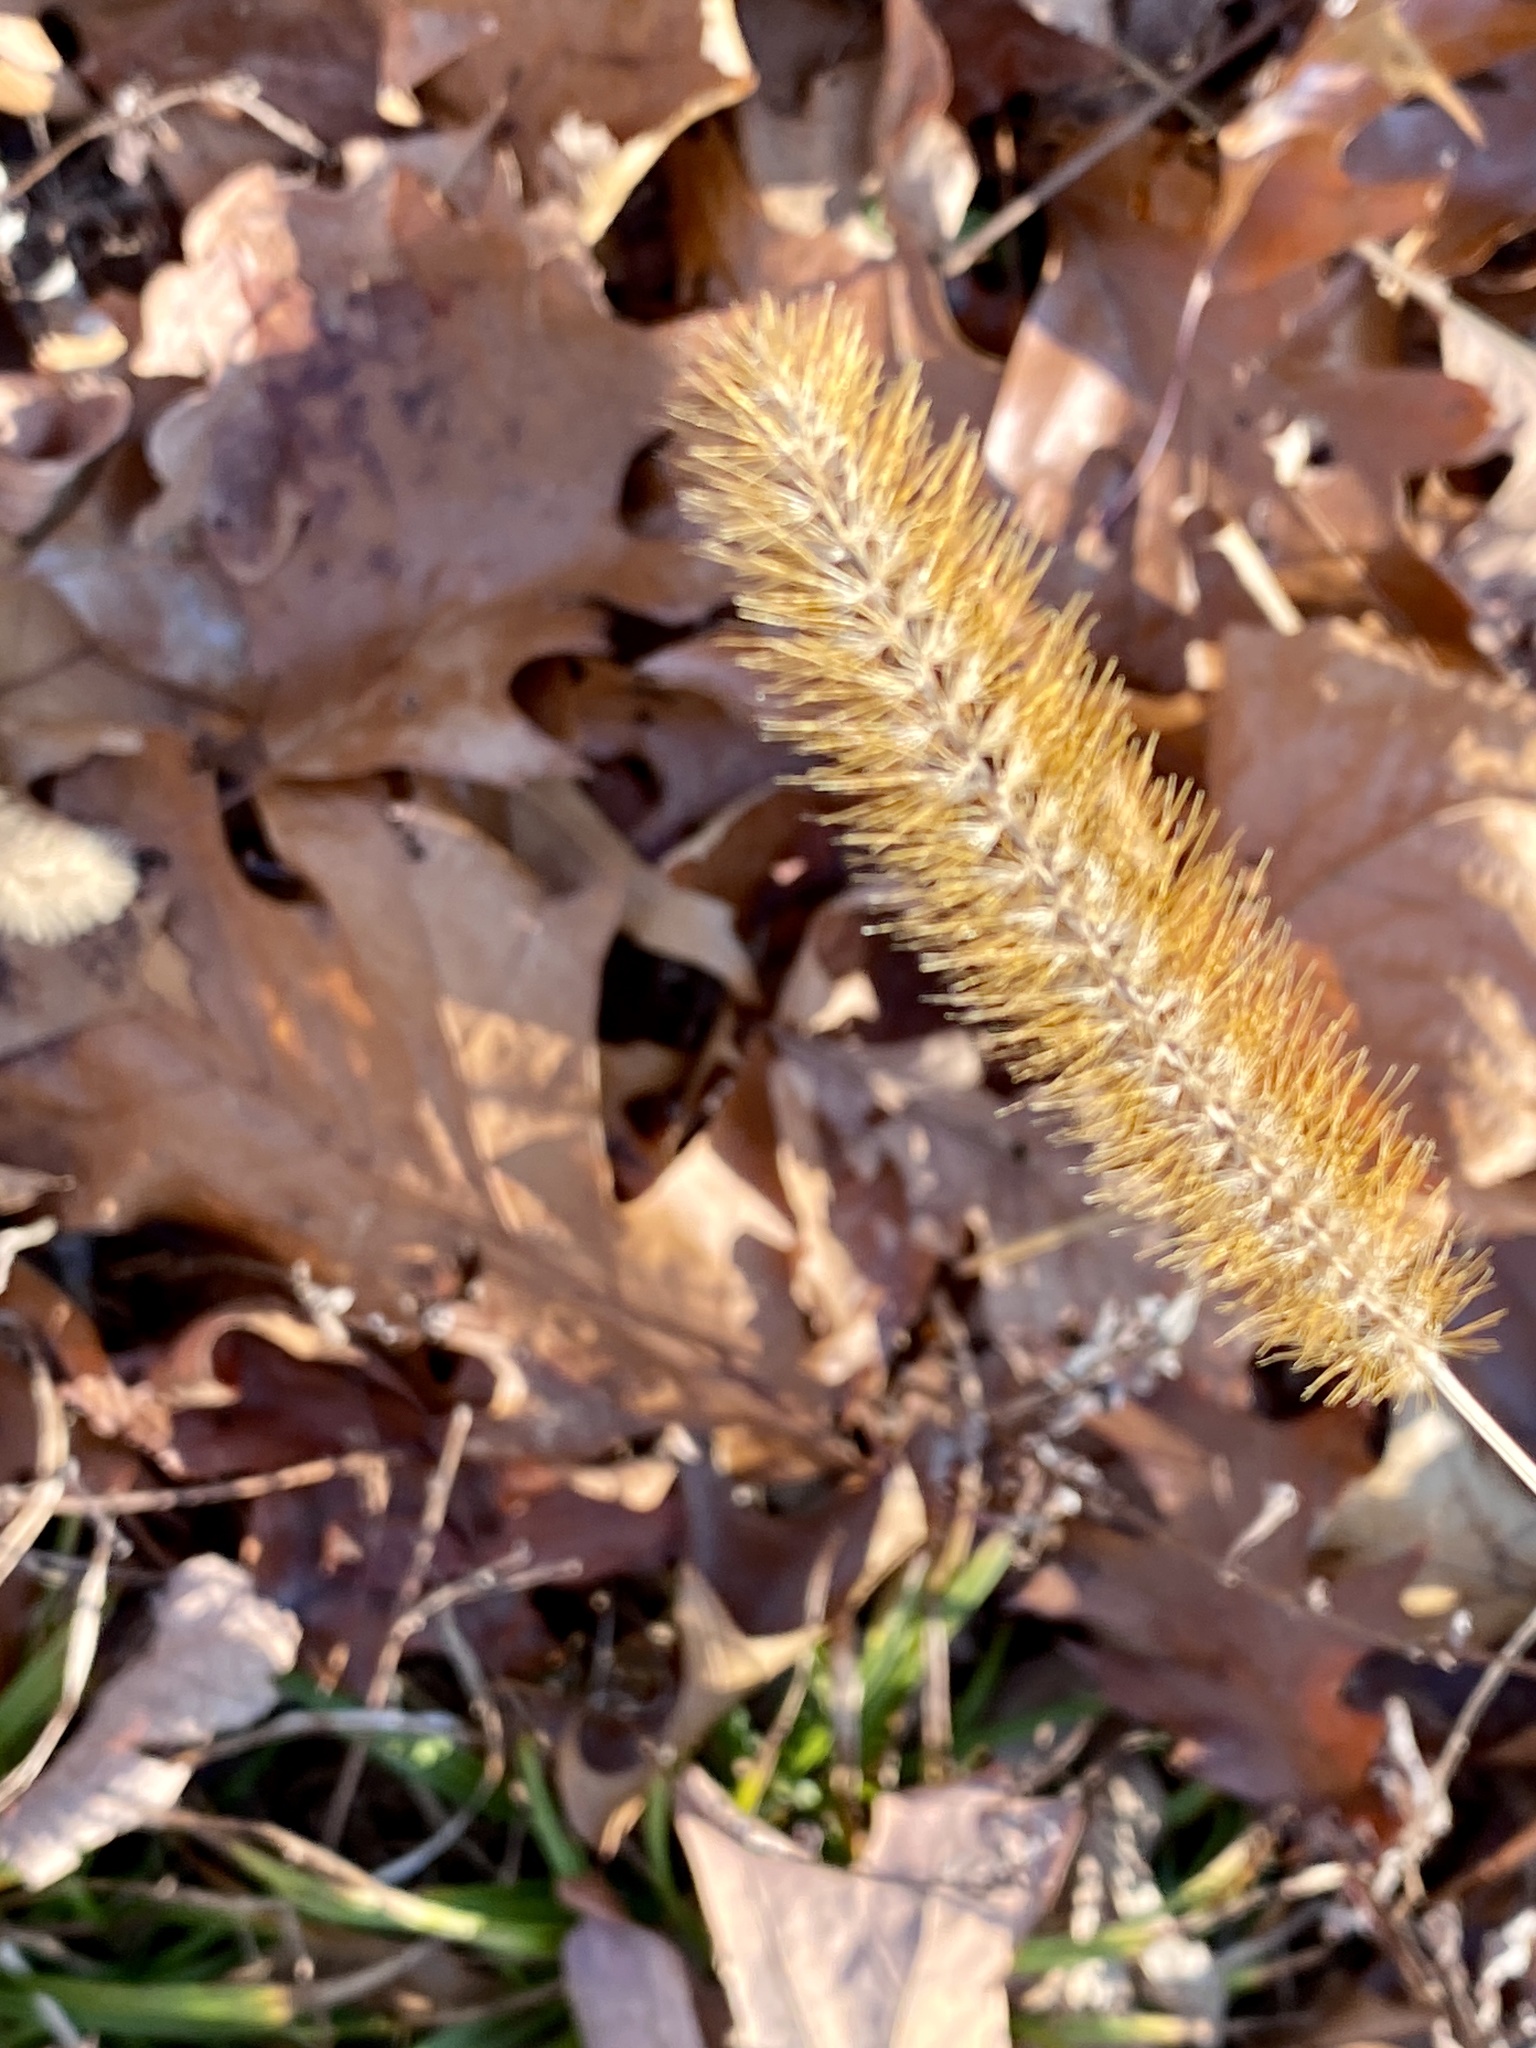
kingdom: Plantae
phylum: Tracheophyta
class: Liliopsida
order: Poales
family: Poaceae
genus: Setaria
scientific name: Setaria pumila
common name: Yellow bristle-grass
